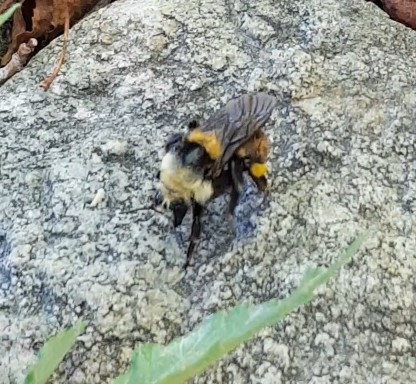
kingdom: Animalia
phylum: Arthropoda
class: Insecta
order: Hymenoptera
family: Apidae
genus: Bombus
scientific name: Bombus appositus
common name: White-shouldered bumble bee
